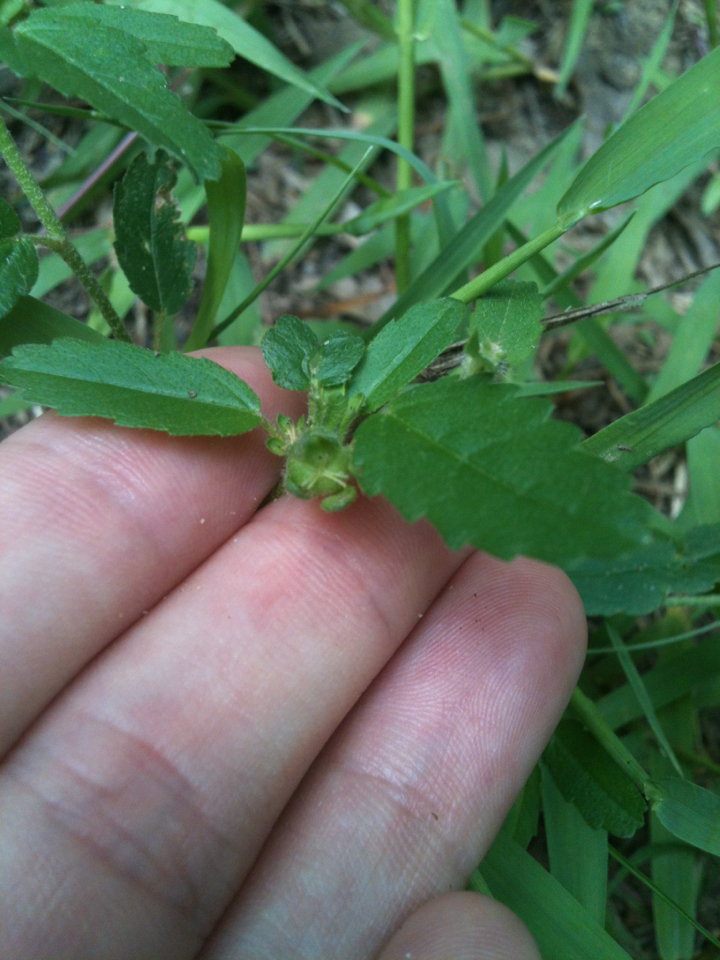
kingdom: Plantae
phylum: Tracheophyta
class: Magnoliopsida
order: Malpighiales
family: Euphorbiaceae
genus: Croton
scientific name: Croton glandulosus
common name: Tropic croton
